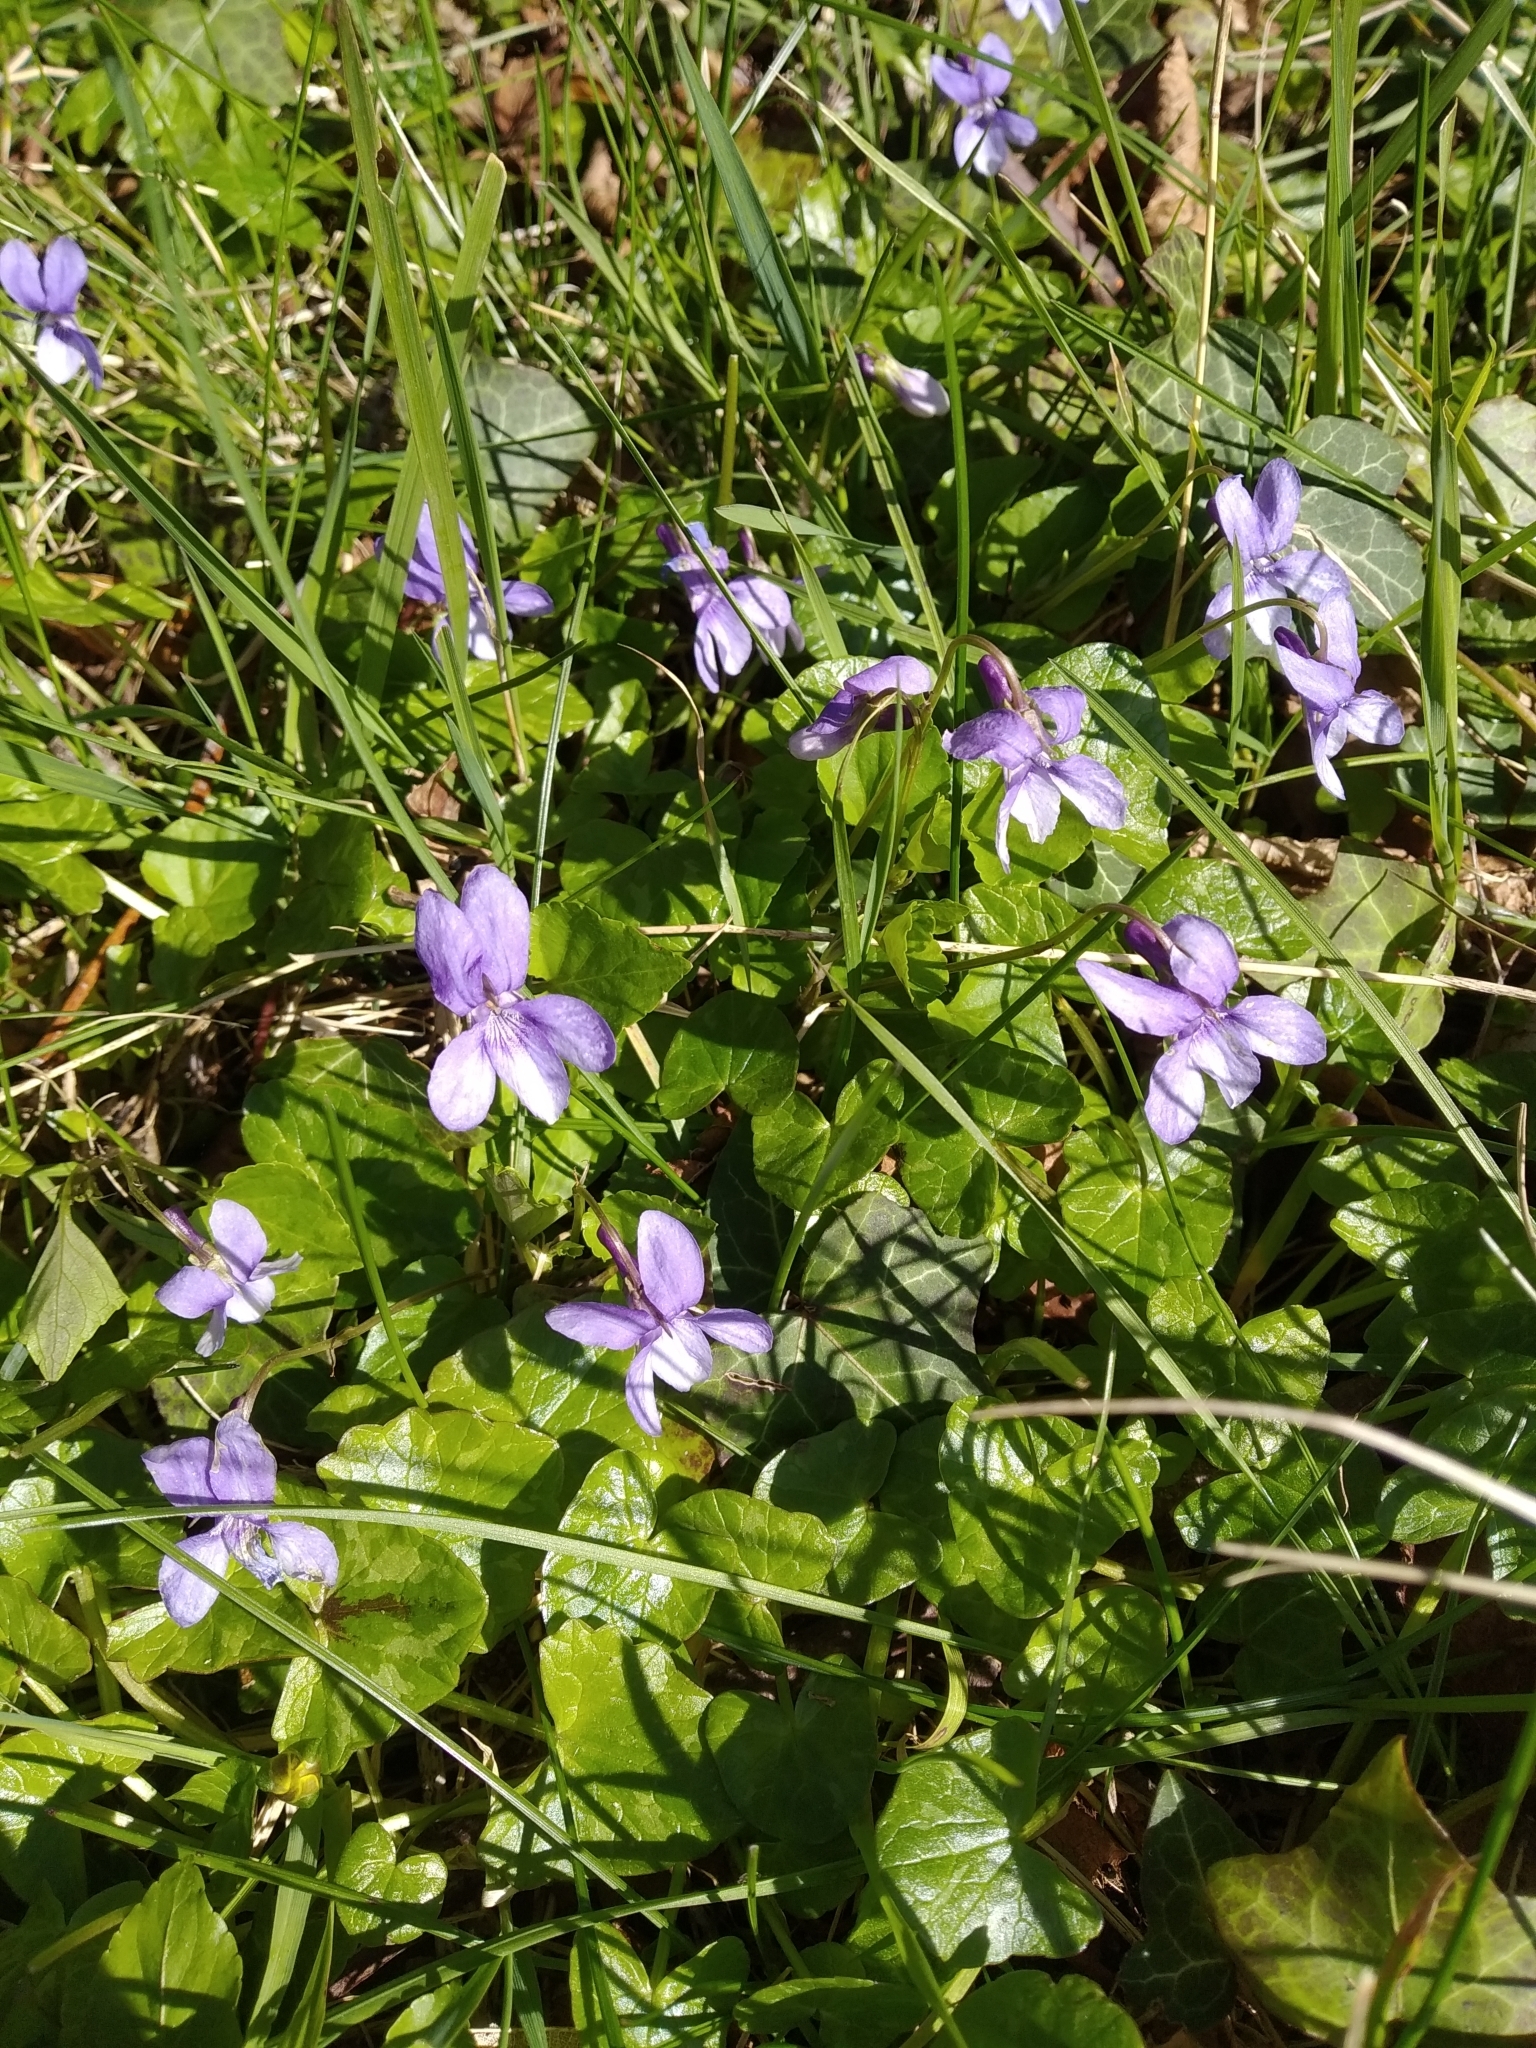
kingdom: Plantae
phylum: Tracheophyta
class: Magnoliopsida
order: Malpighiales
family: Violaceae
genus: Viola
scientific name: Viola reichenbachiana
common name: Early dog-violet
